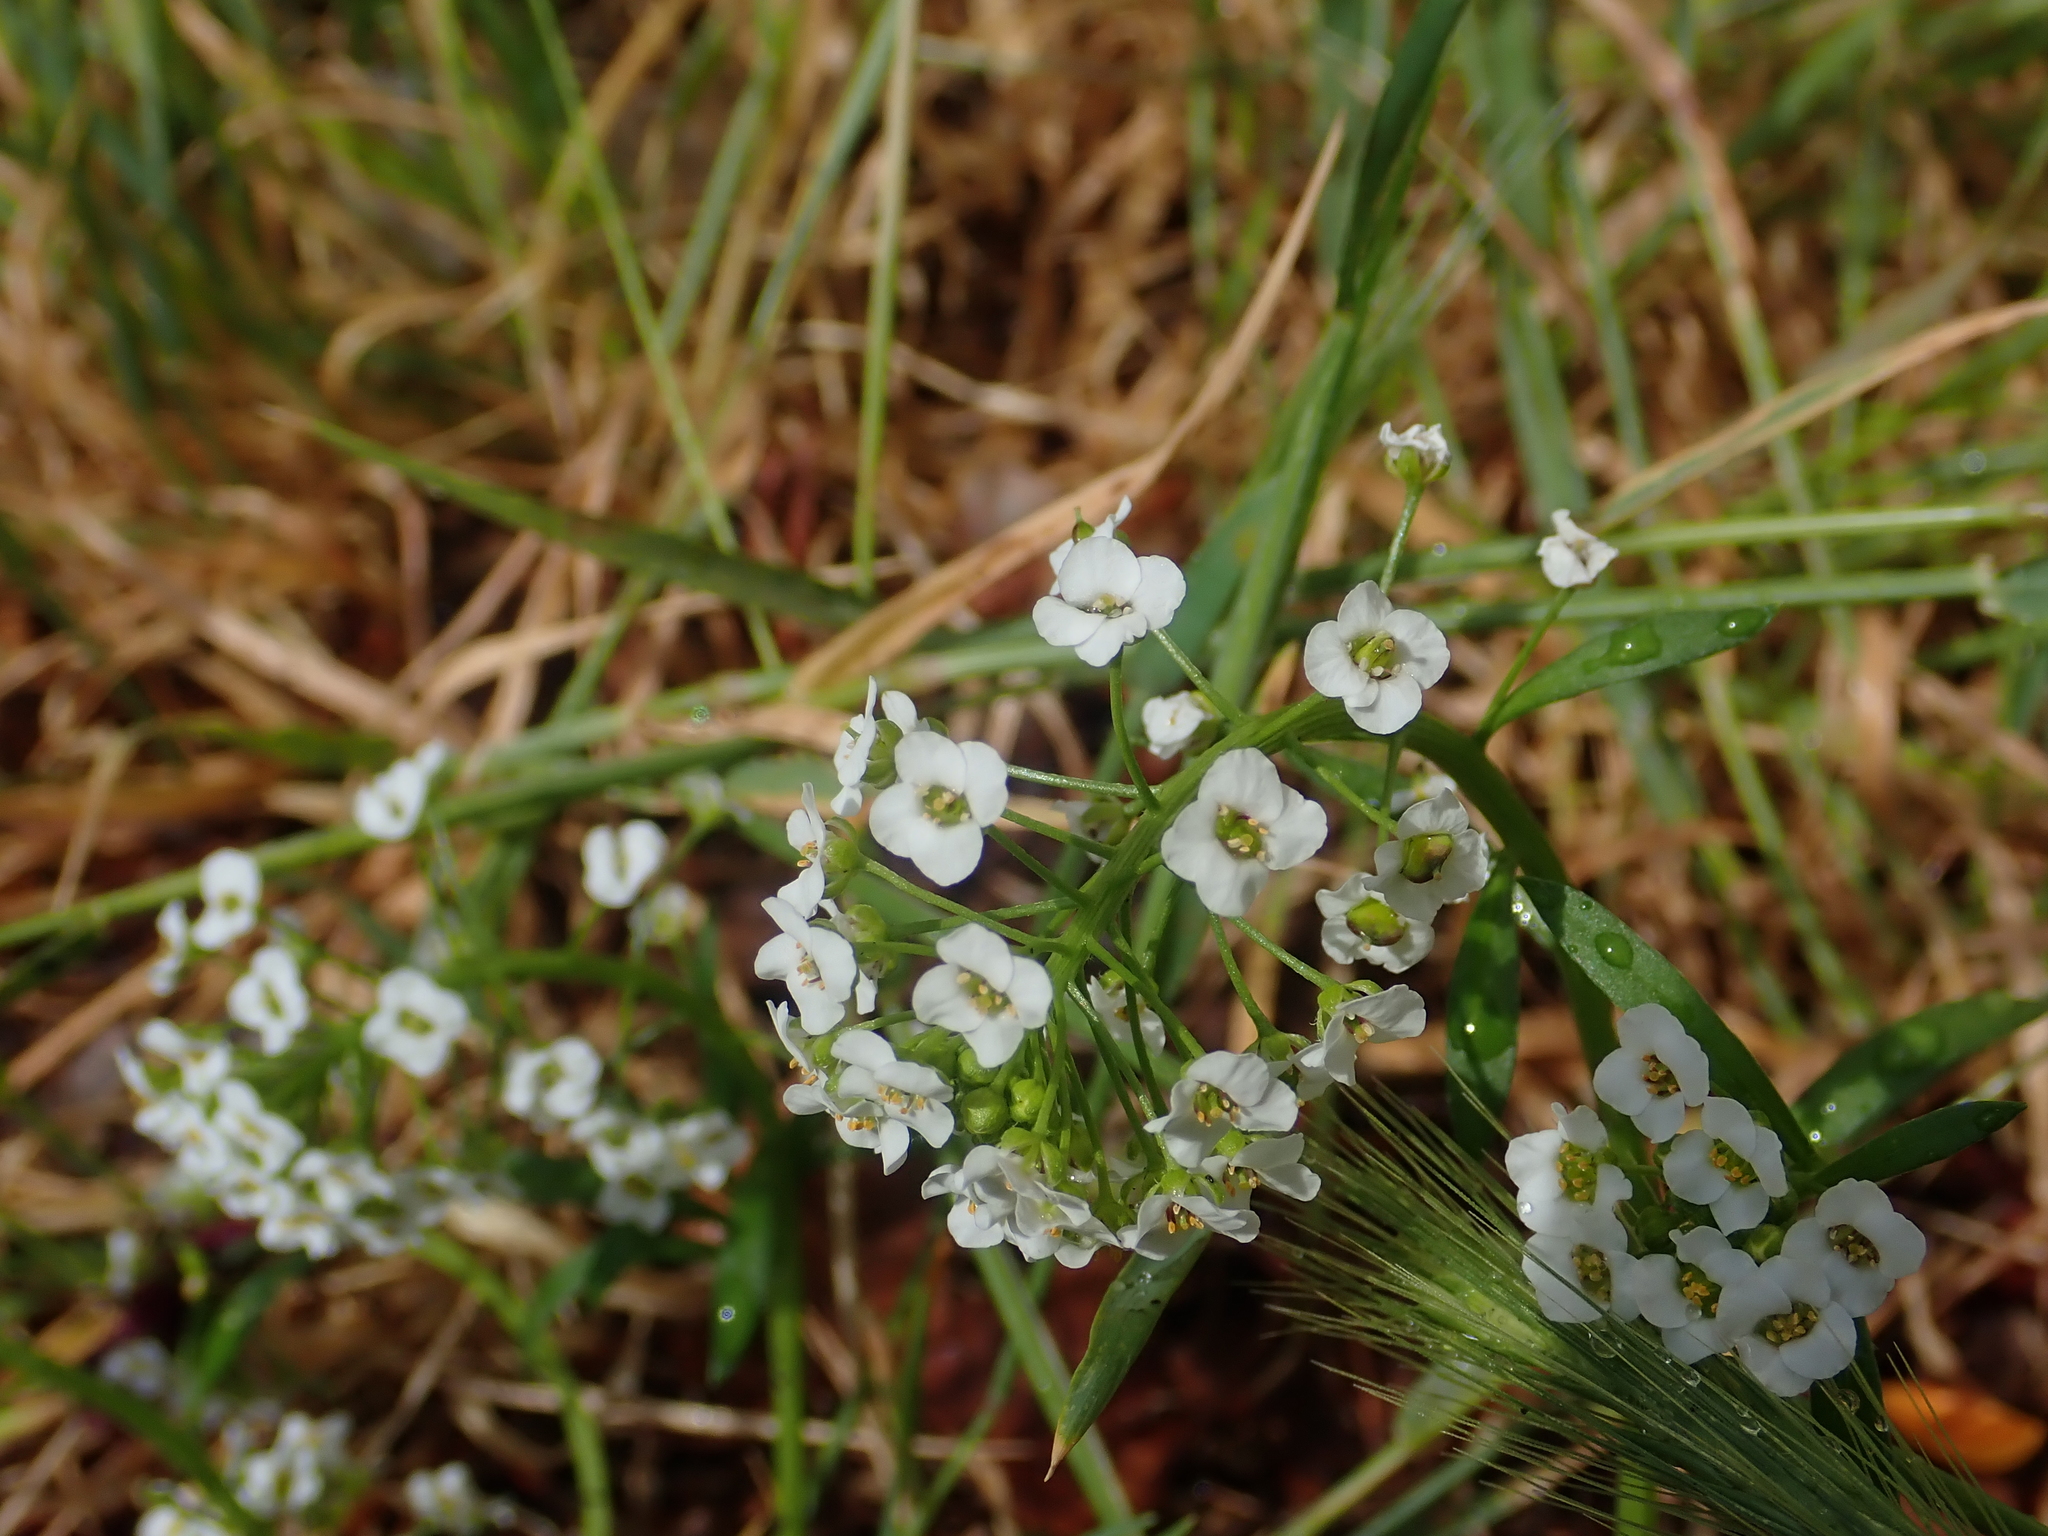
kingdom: Plantae
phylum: Tracheophyta
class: Magnoliopsida
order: Brassicales
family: Brassicaceae
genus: Lobularia
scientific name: Lobularia maritima
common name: Sweet alison
